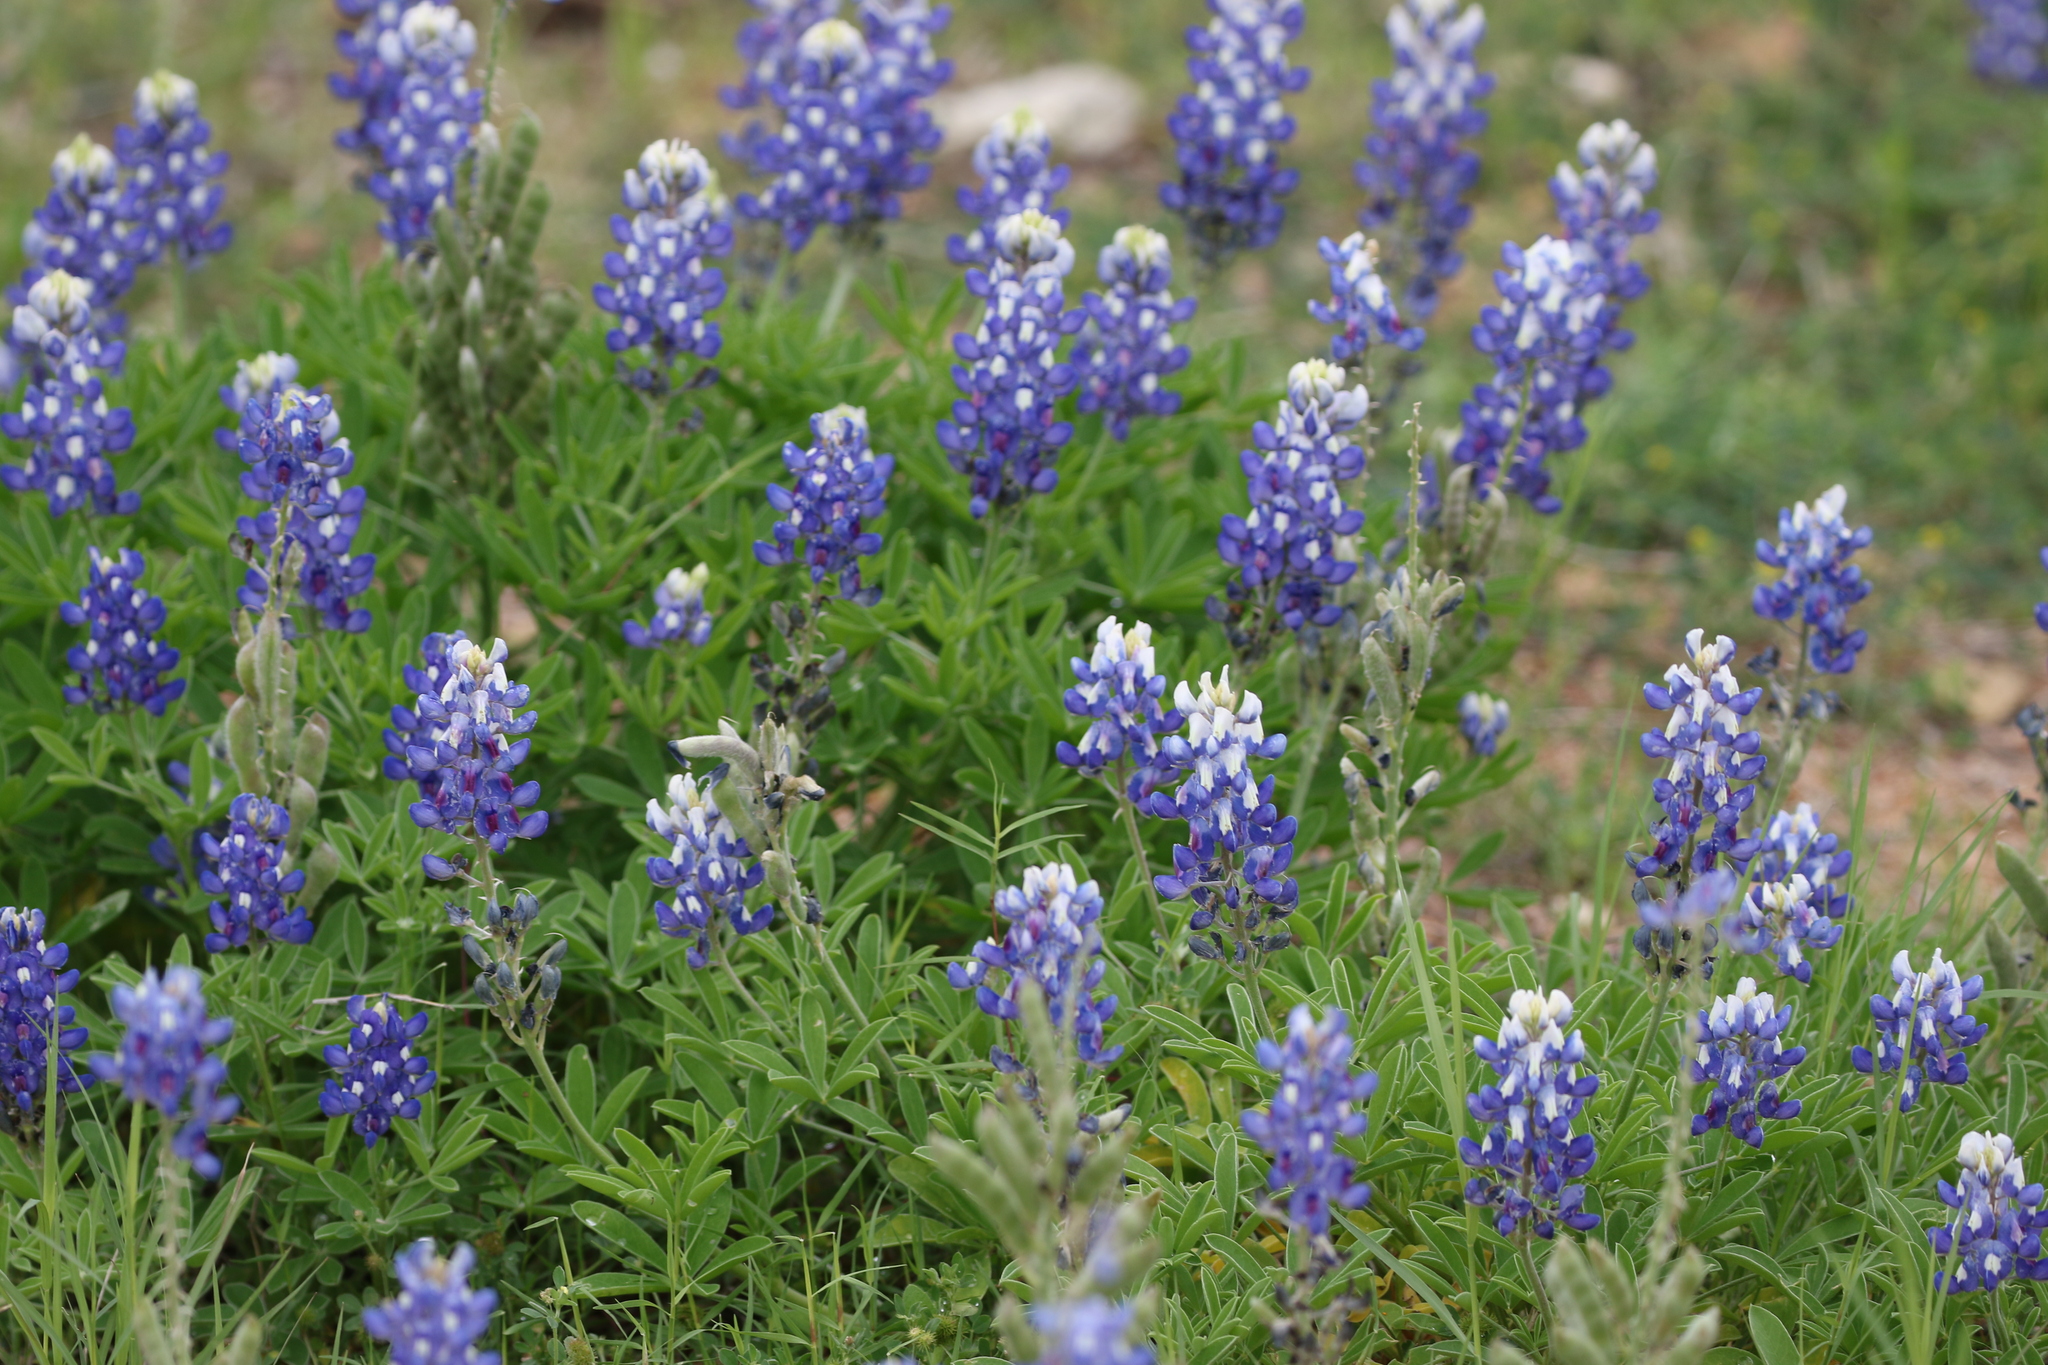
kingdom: Plantae
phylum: Tracheophyta
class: Magnoliopsida
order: Fabales
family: Fabaceae
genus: Lupinus
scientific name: Lupinus texensis
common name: Texas bluebonnet
